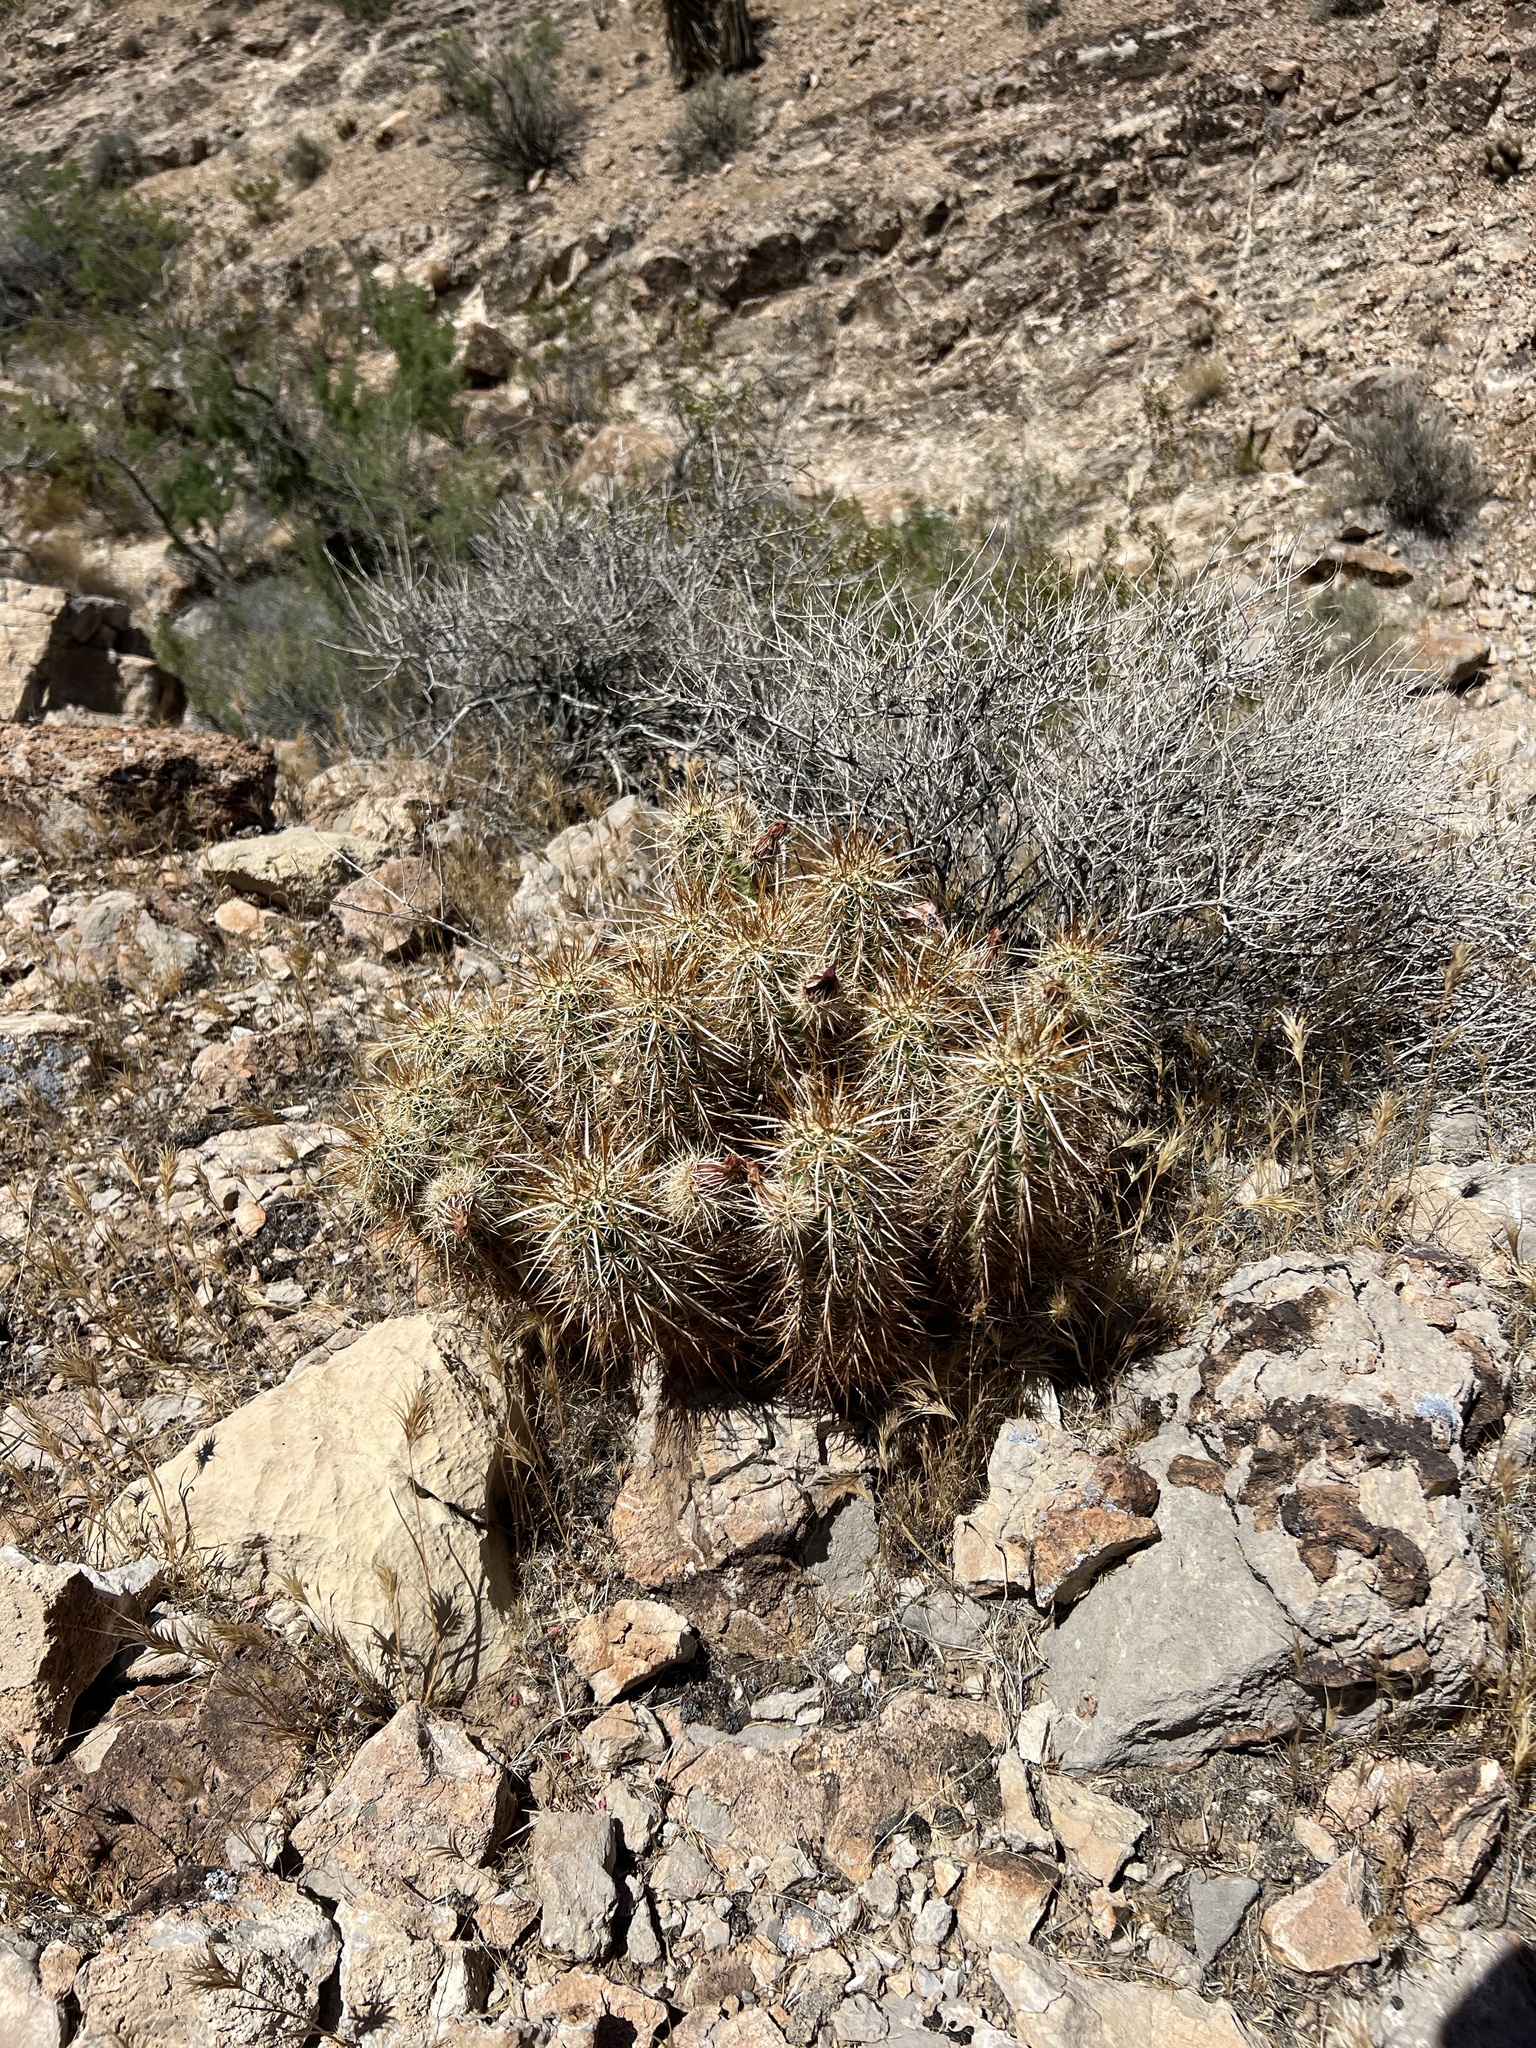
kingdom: Plantae
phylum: Tracheophyta
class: Magnoliopsida
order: Caryophyllales
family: Cactaceae
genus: Echinocereus
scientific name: Echinocereus engelmannii
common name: Engelmann's hedgehog cactus
